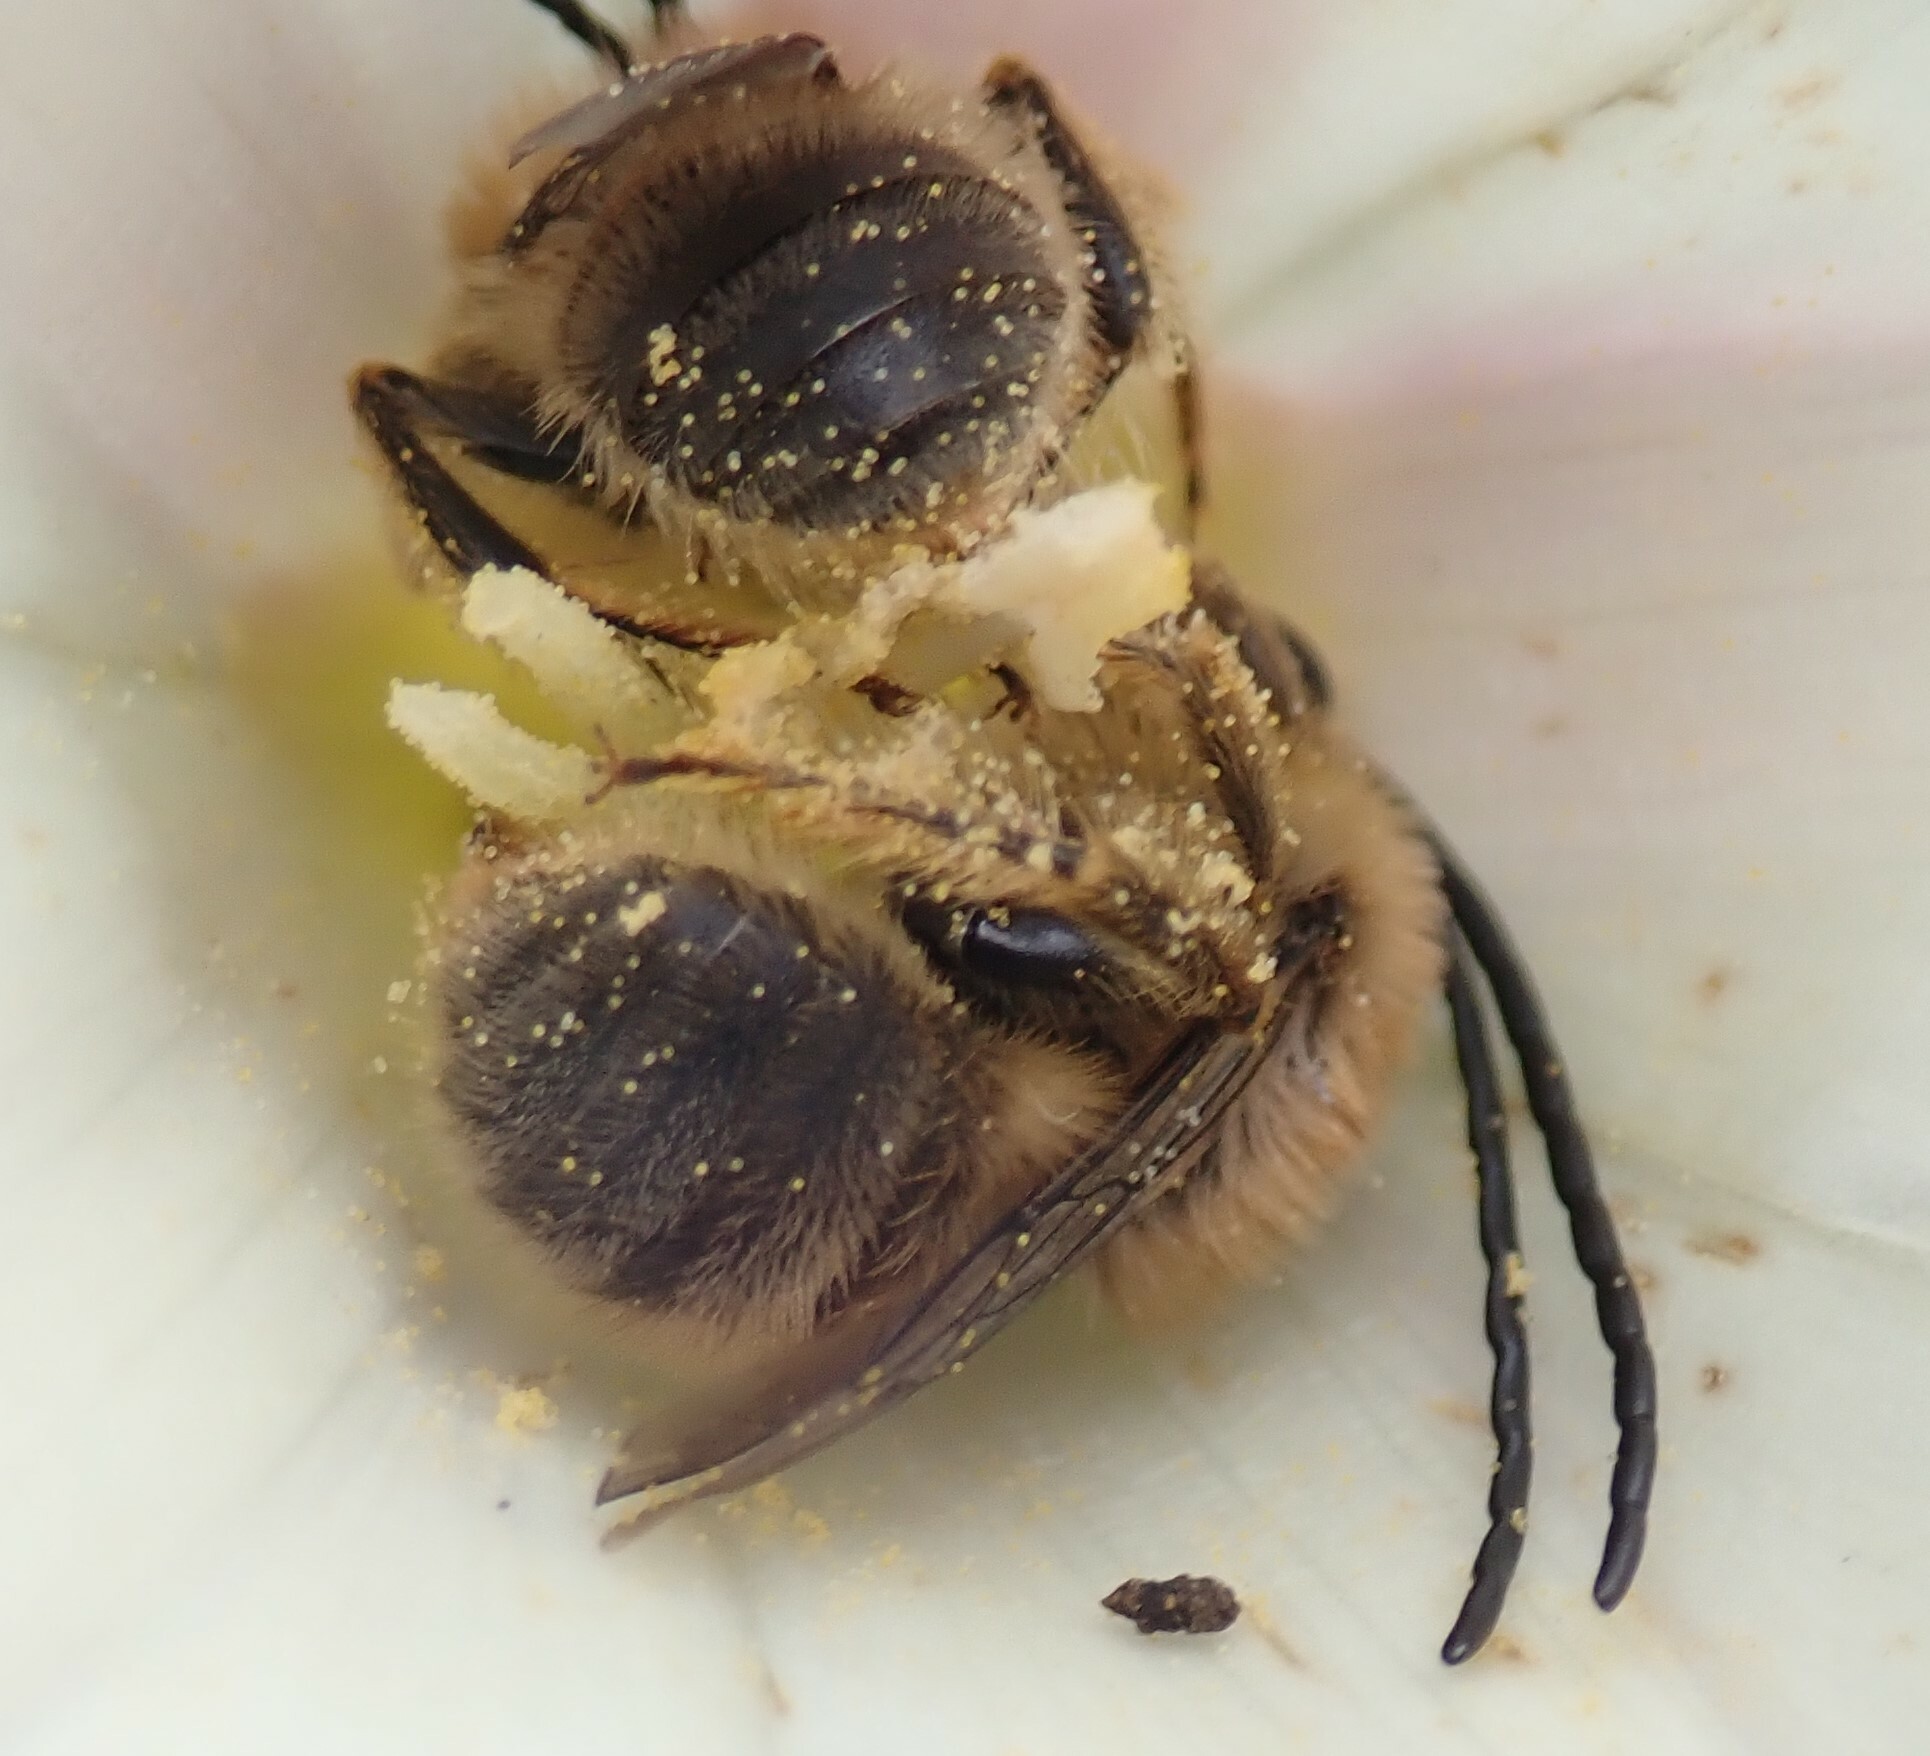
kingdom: Animalia
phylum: Arthropoda
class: Insecta
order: Hymenoptera
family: Apidae
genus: Tetraloniella
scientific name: Tetraloniella davidsoni
